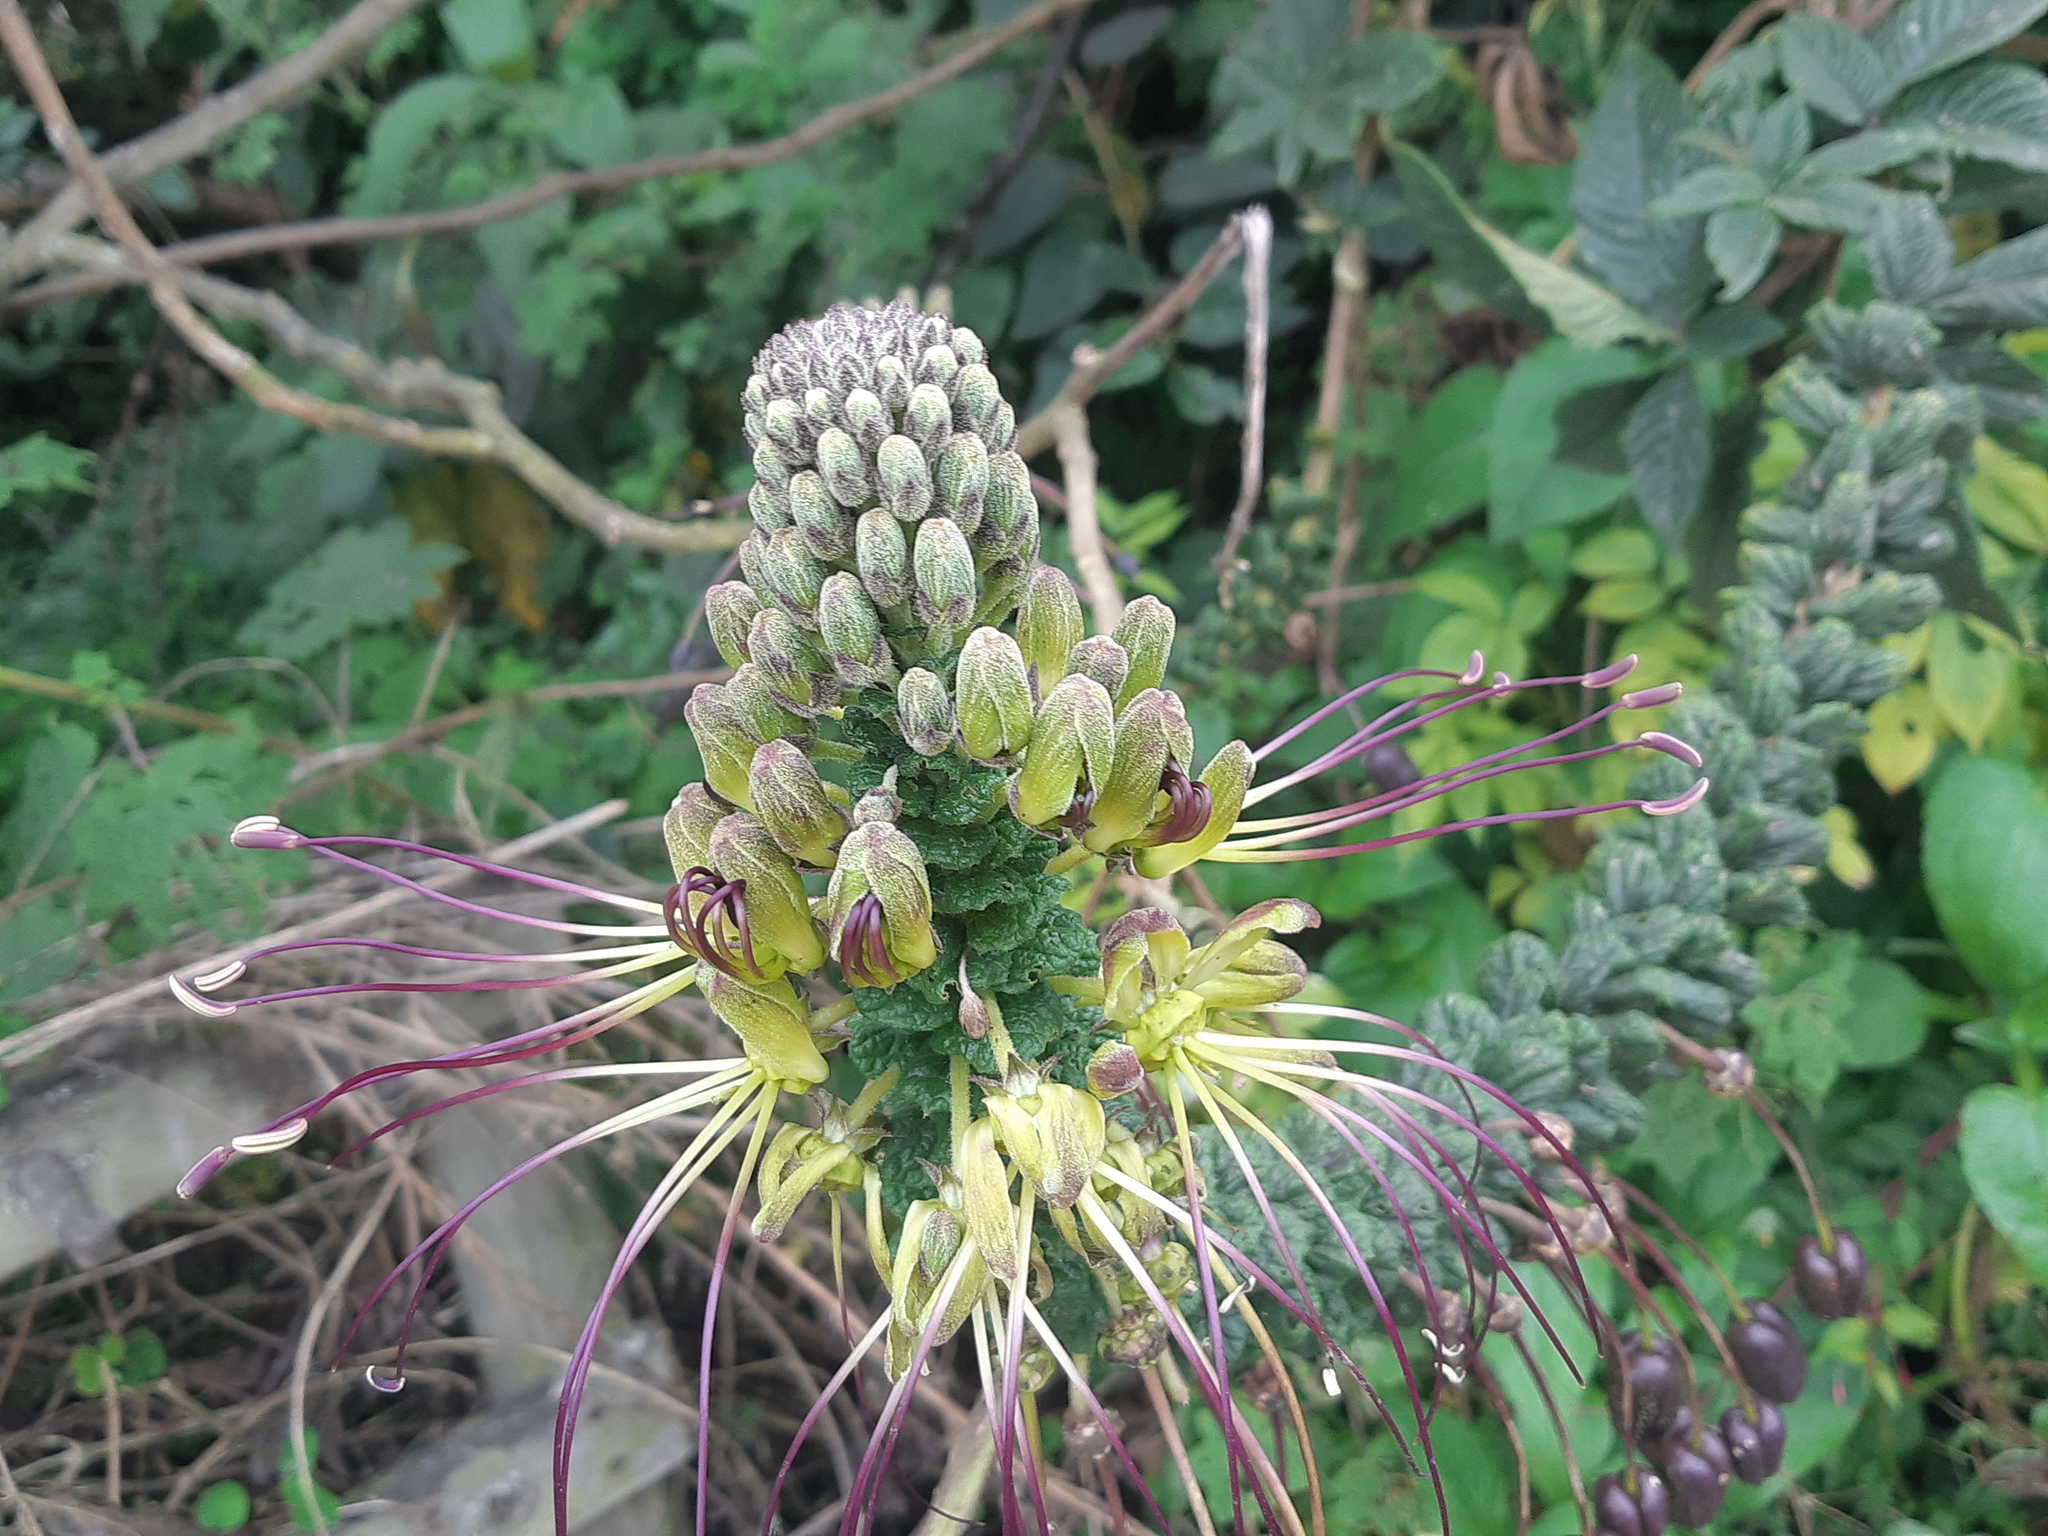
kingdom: Plantae
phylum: Tracheophyta
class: Magnoliopsida
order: Brassicales
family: Cleomaceae
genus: Andinocleome
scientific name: Andinocleome anomala
